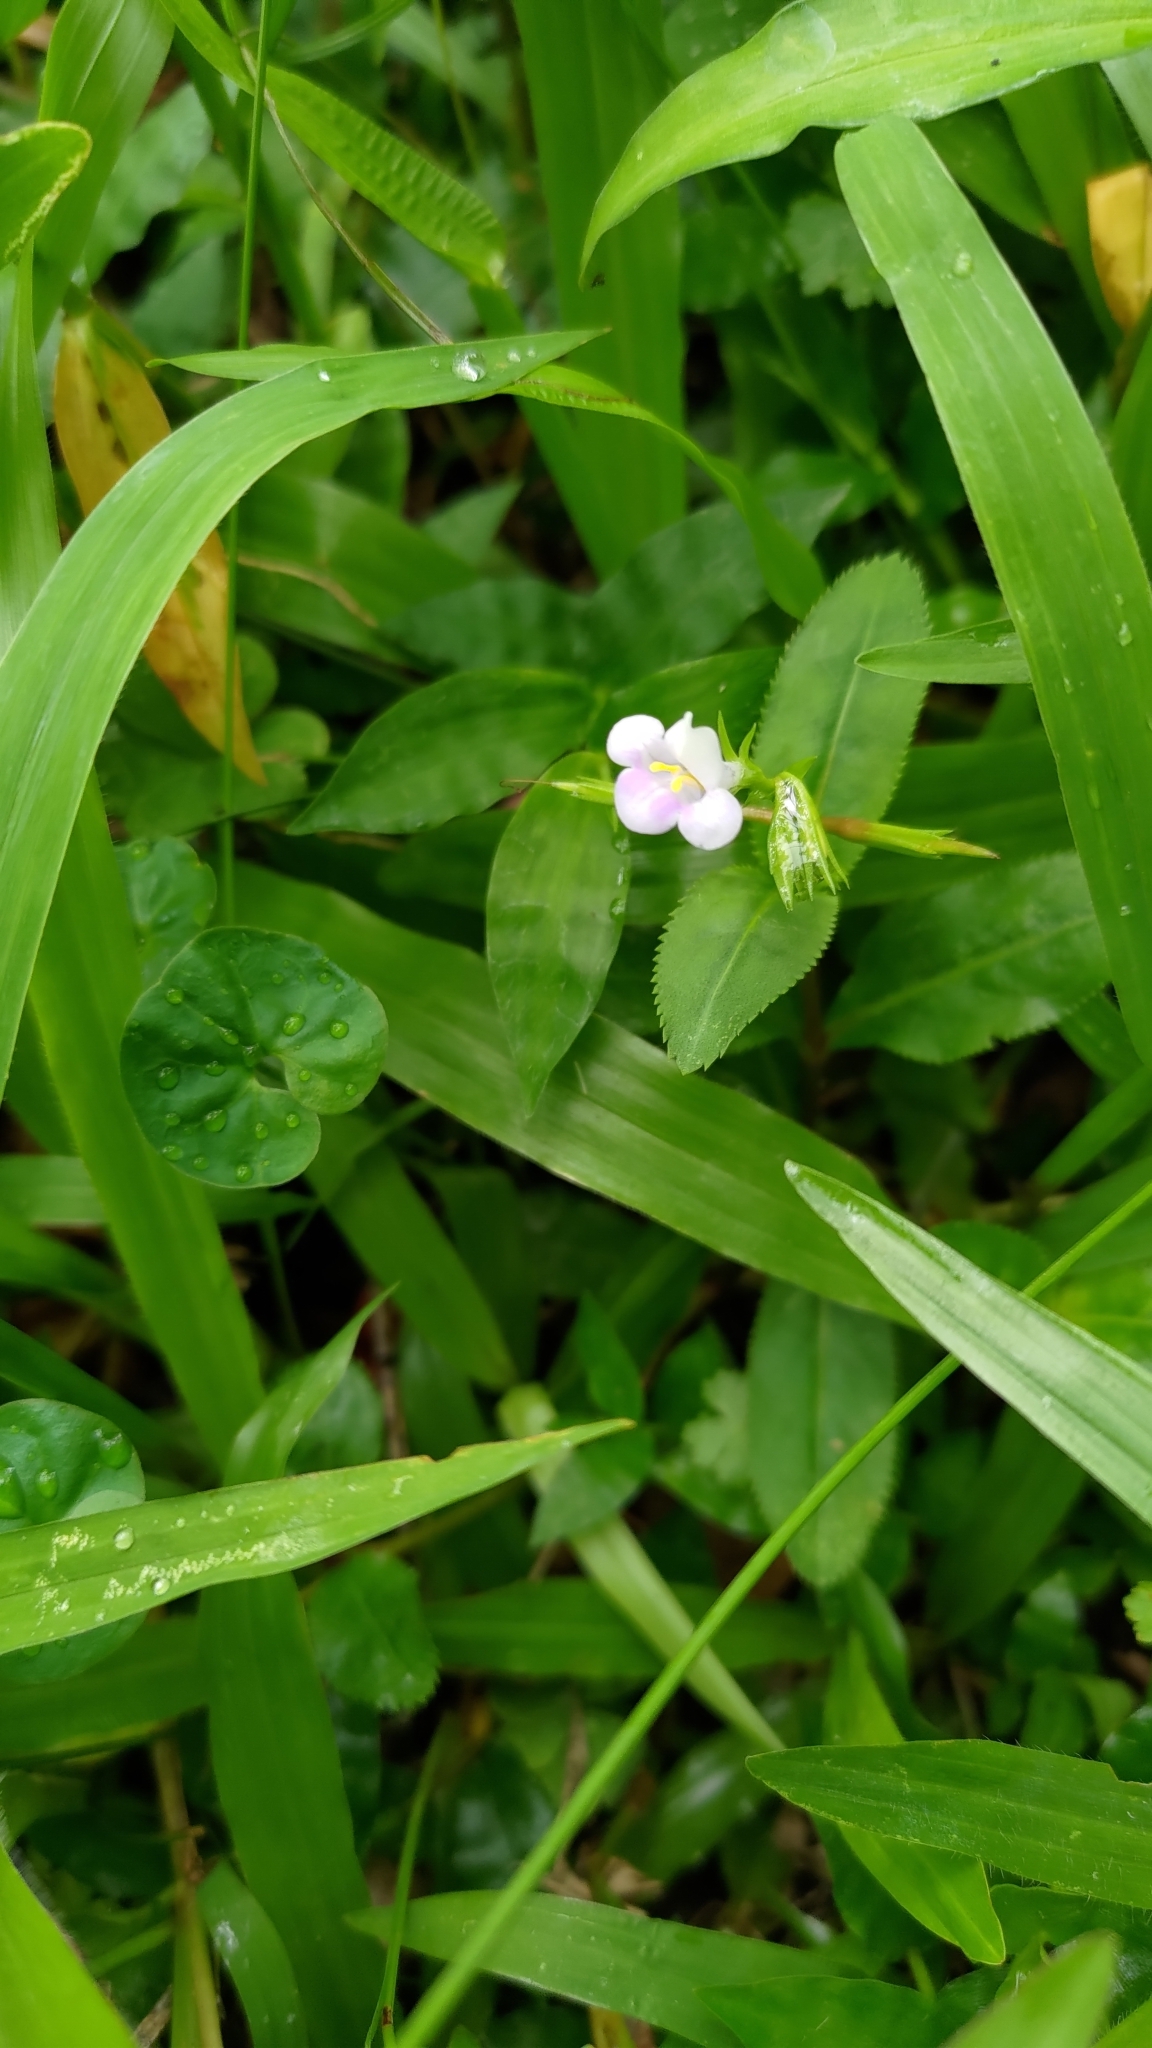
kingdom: Plantae
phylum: Tracheophyta
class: Magnoliopsida
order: Lamiales
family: Linderniaceae
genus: Bonnaya
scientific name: Bonnaya ruelloides
